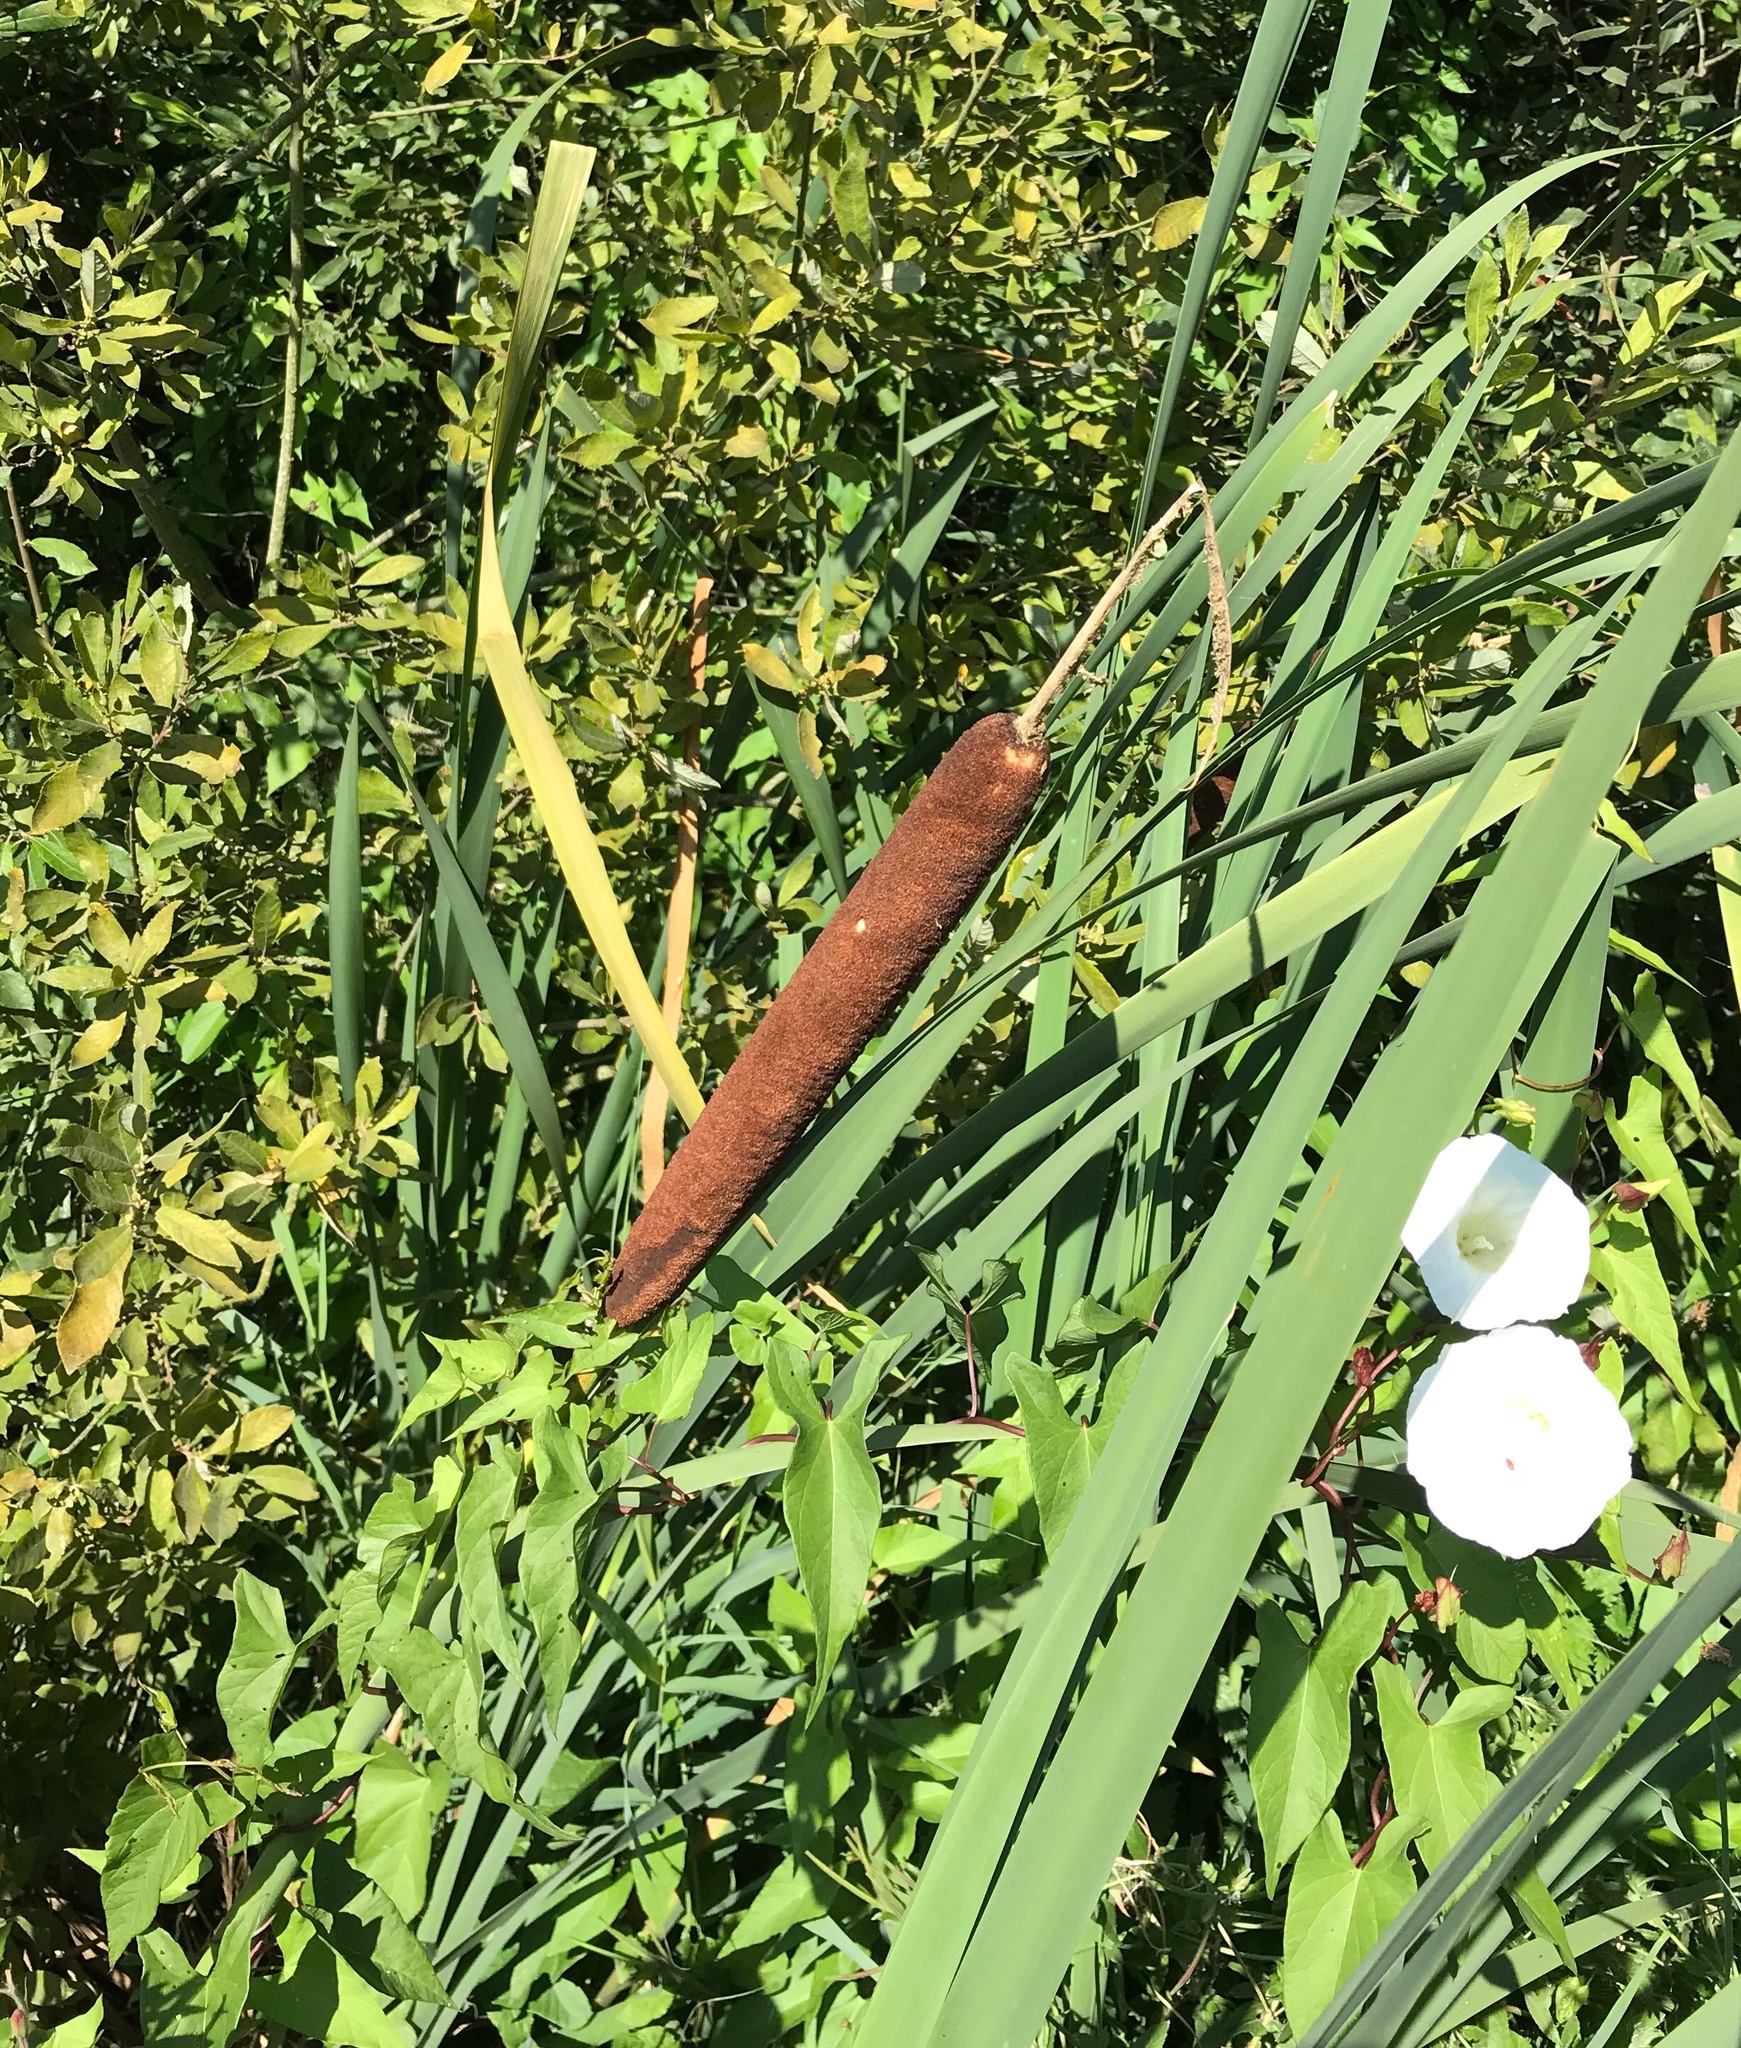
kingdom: Plantae
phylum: Tracheophyta
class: Liliopsida
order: Poales
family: Typhaceae
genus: Typha
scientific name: Typha latifolia
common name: Broadleaf cattail
